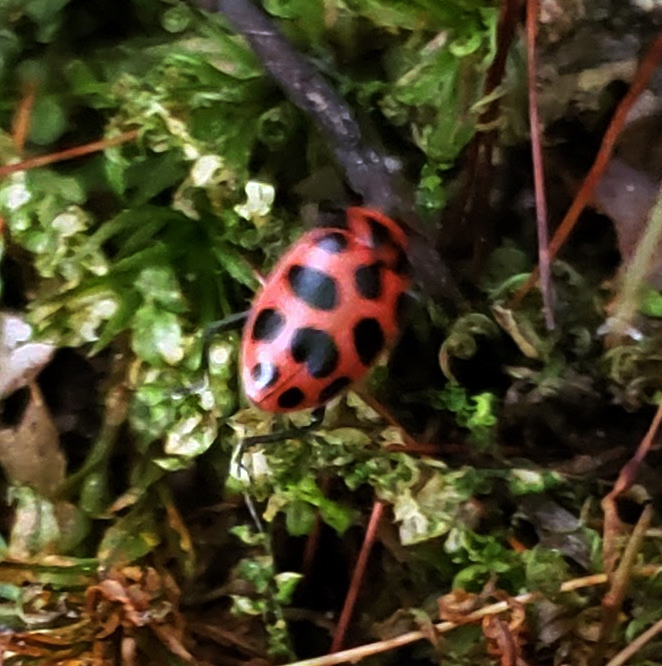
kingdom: Animalia
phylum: Arthropoda
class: Insecta
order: Coleoptera
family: Coccinellidae
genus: Coleomegilla
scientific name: Coleomegilla maculata
